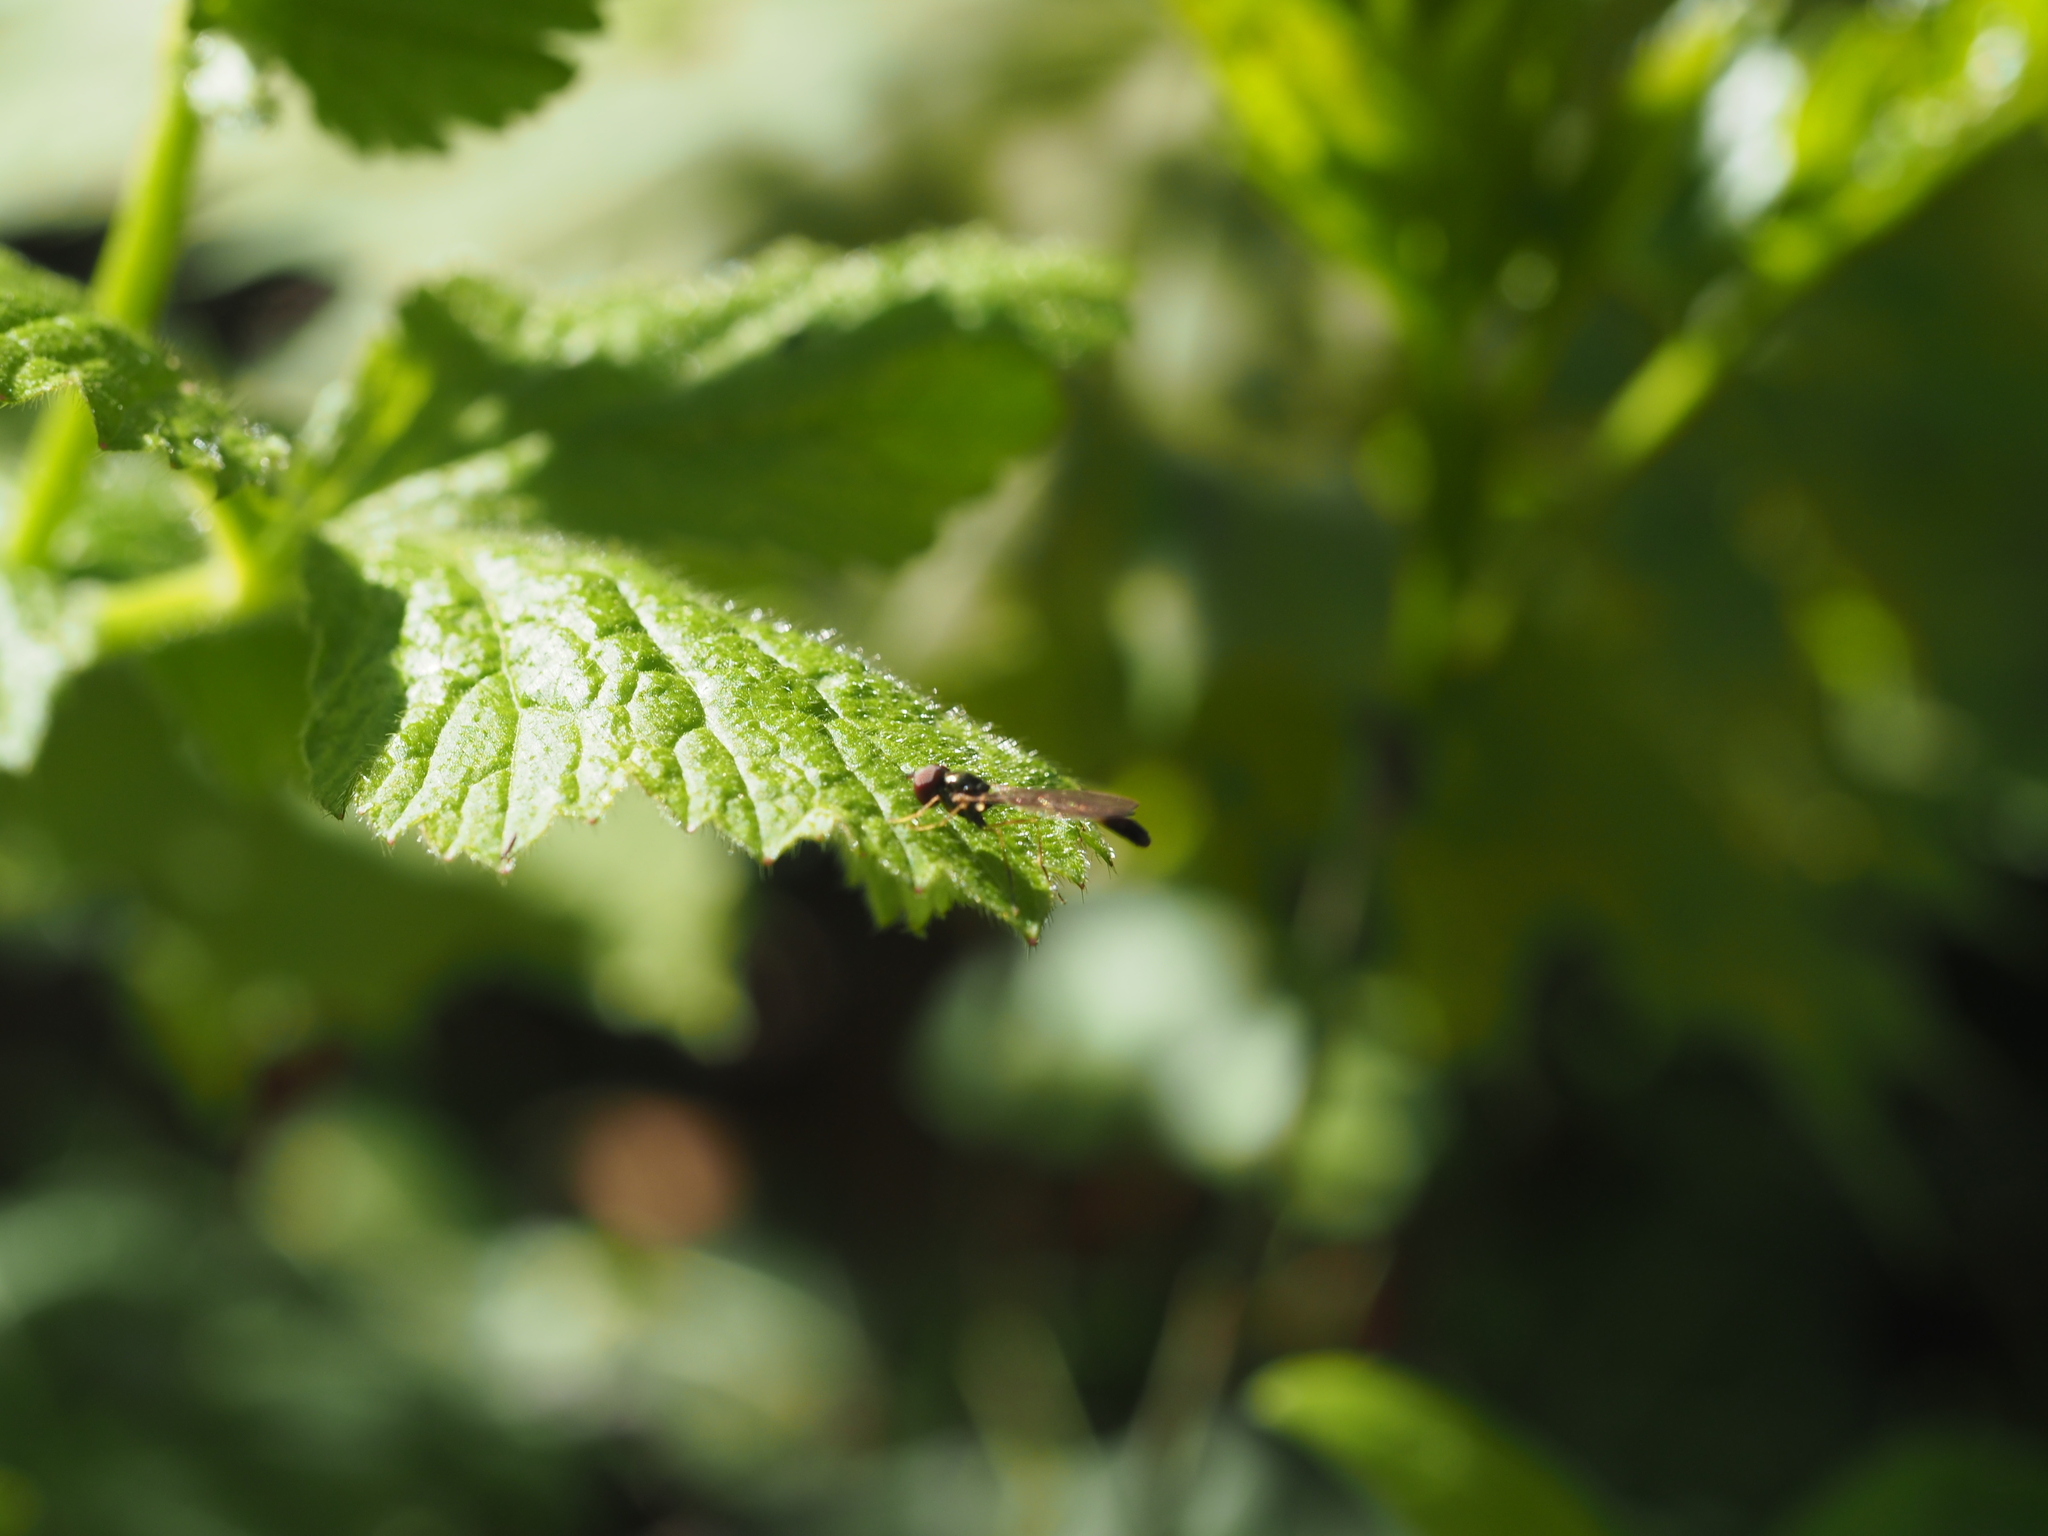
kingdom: Animalia
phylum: Arthropoda
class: Insecta
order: Diptera
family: Syrphidae
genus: Baccha
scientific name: Baccha elongata
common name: Common dainty
